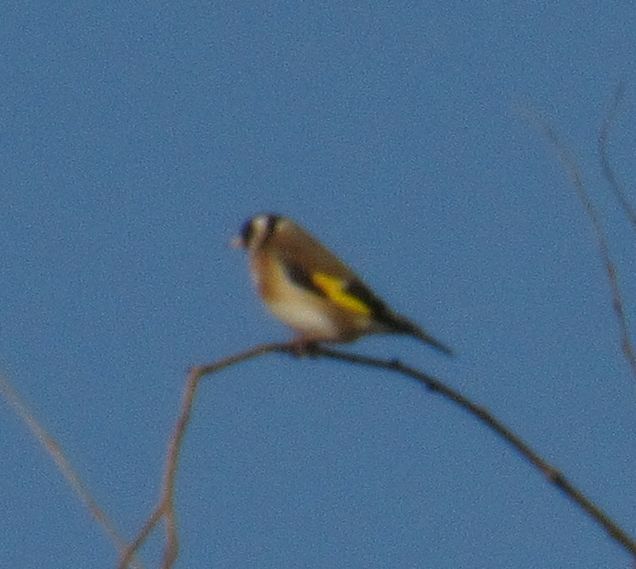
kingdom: Animalia
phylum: Chordata
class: Aves
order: Passeriformes
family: Fringillidae
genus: Carduelis
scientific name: Carduelis carduelis
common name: European goldfinch
